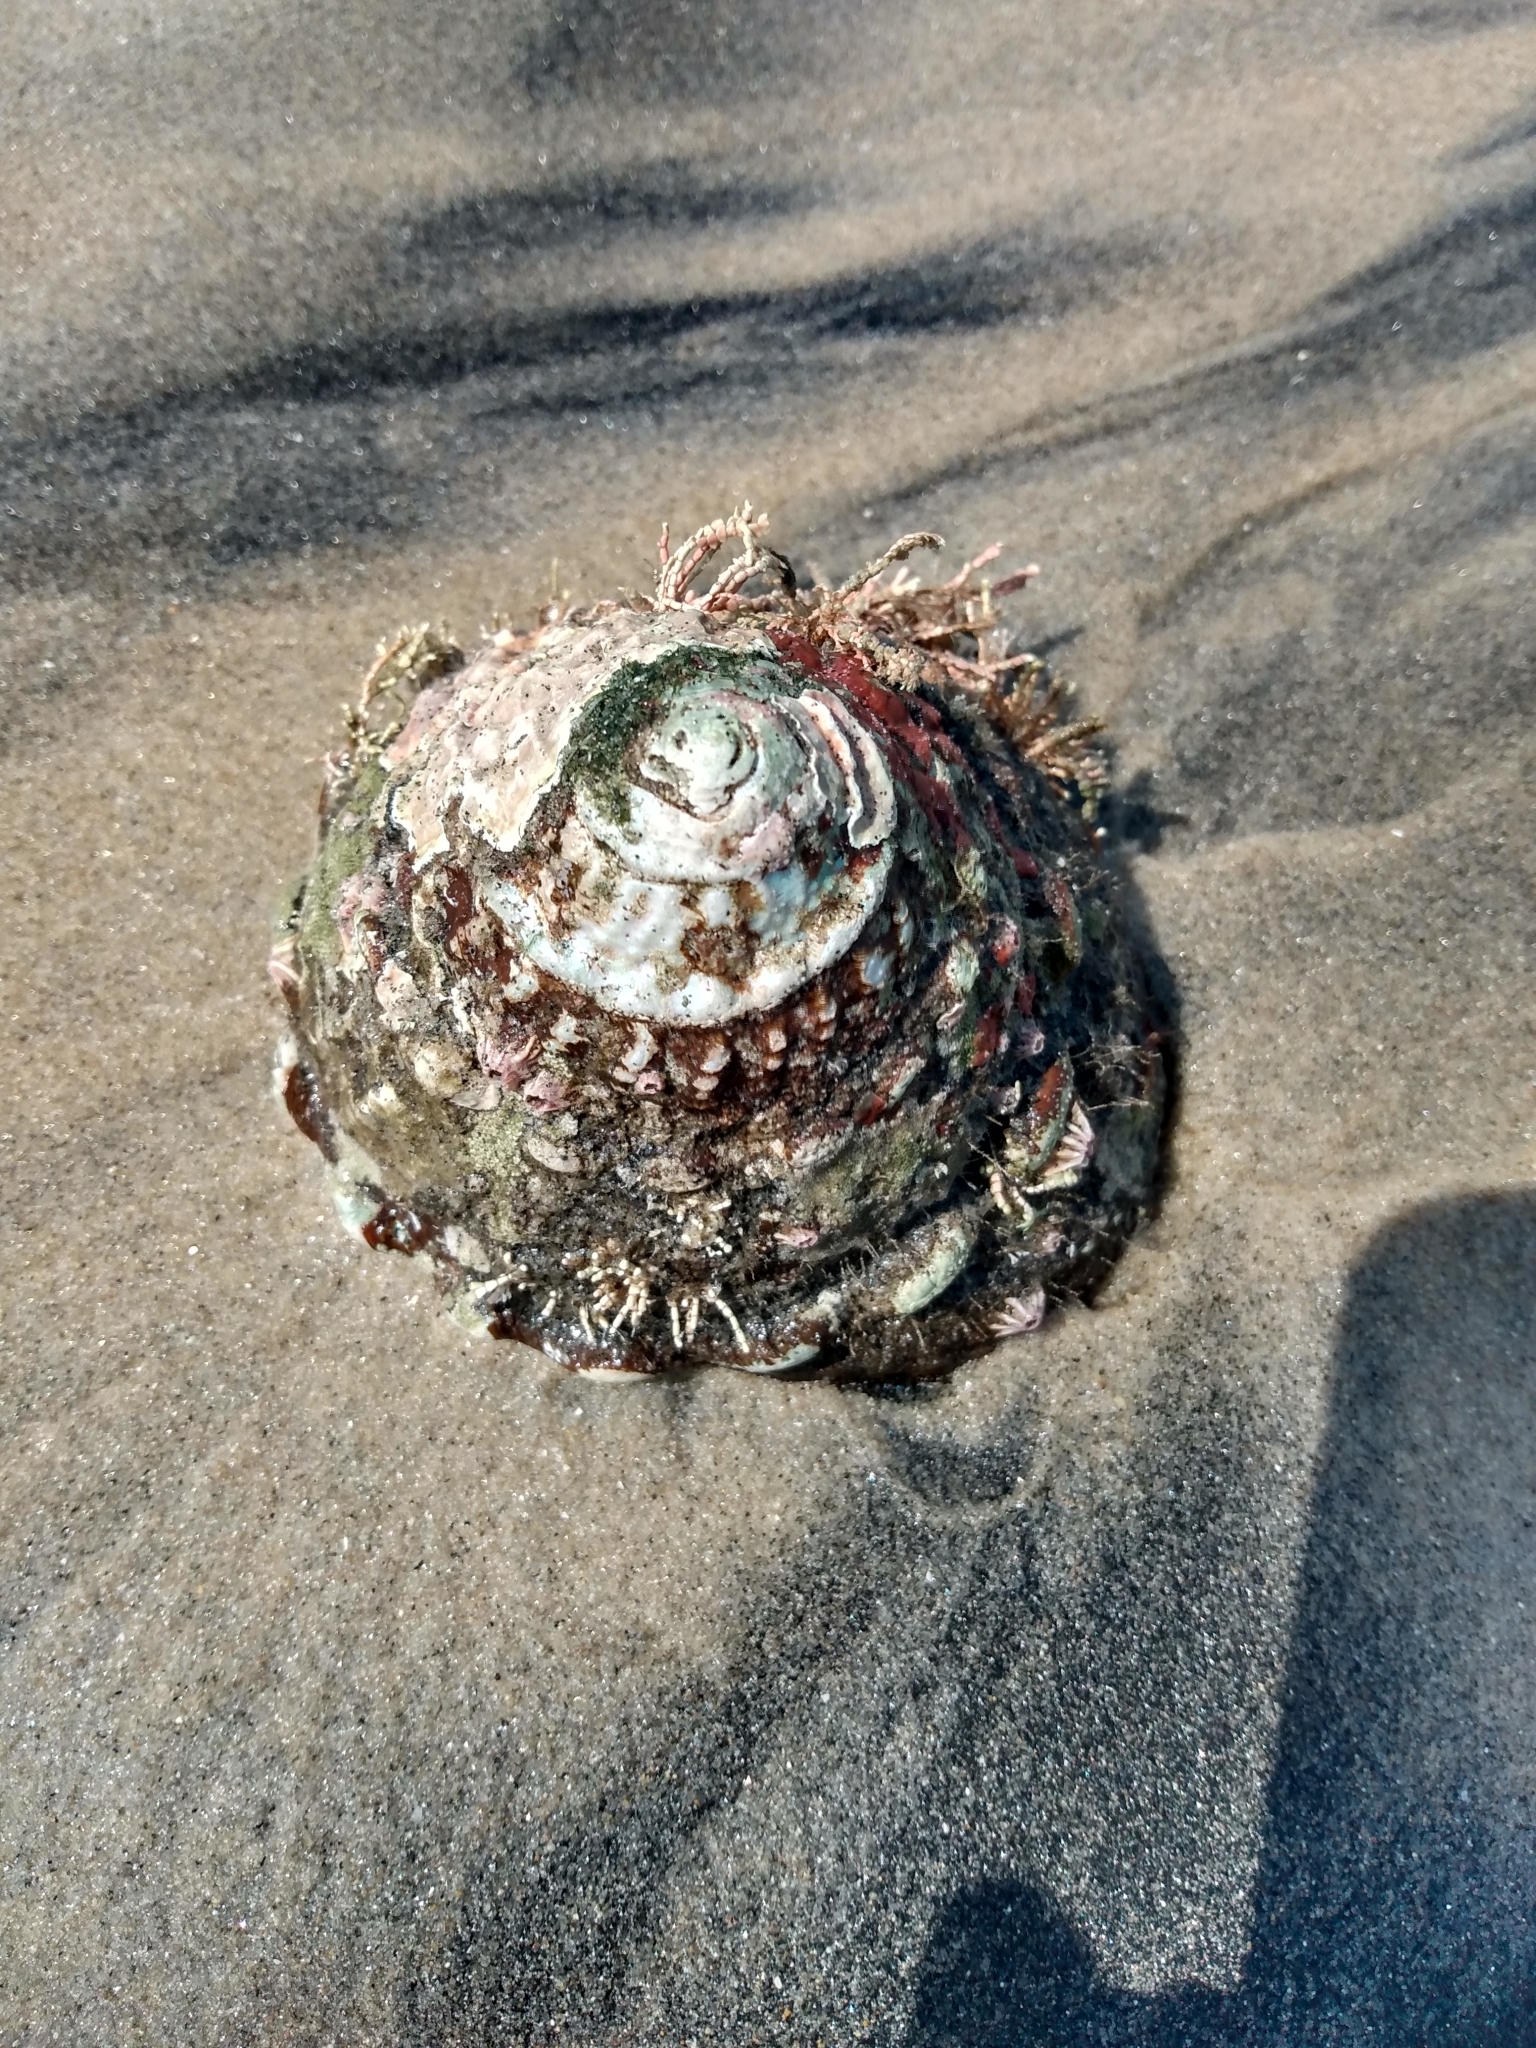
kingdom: Animalia
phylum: Mollusca
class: Gastropoda
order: Trochida
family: Turbinidae
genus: Megastraea
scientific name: Megastraea undosa
